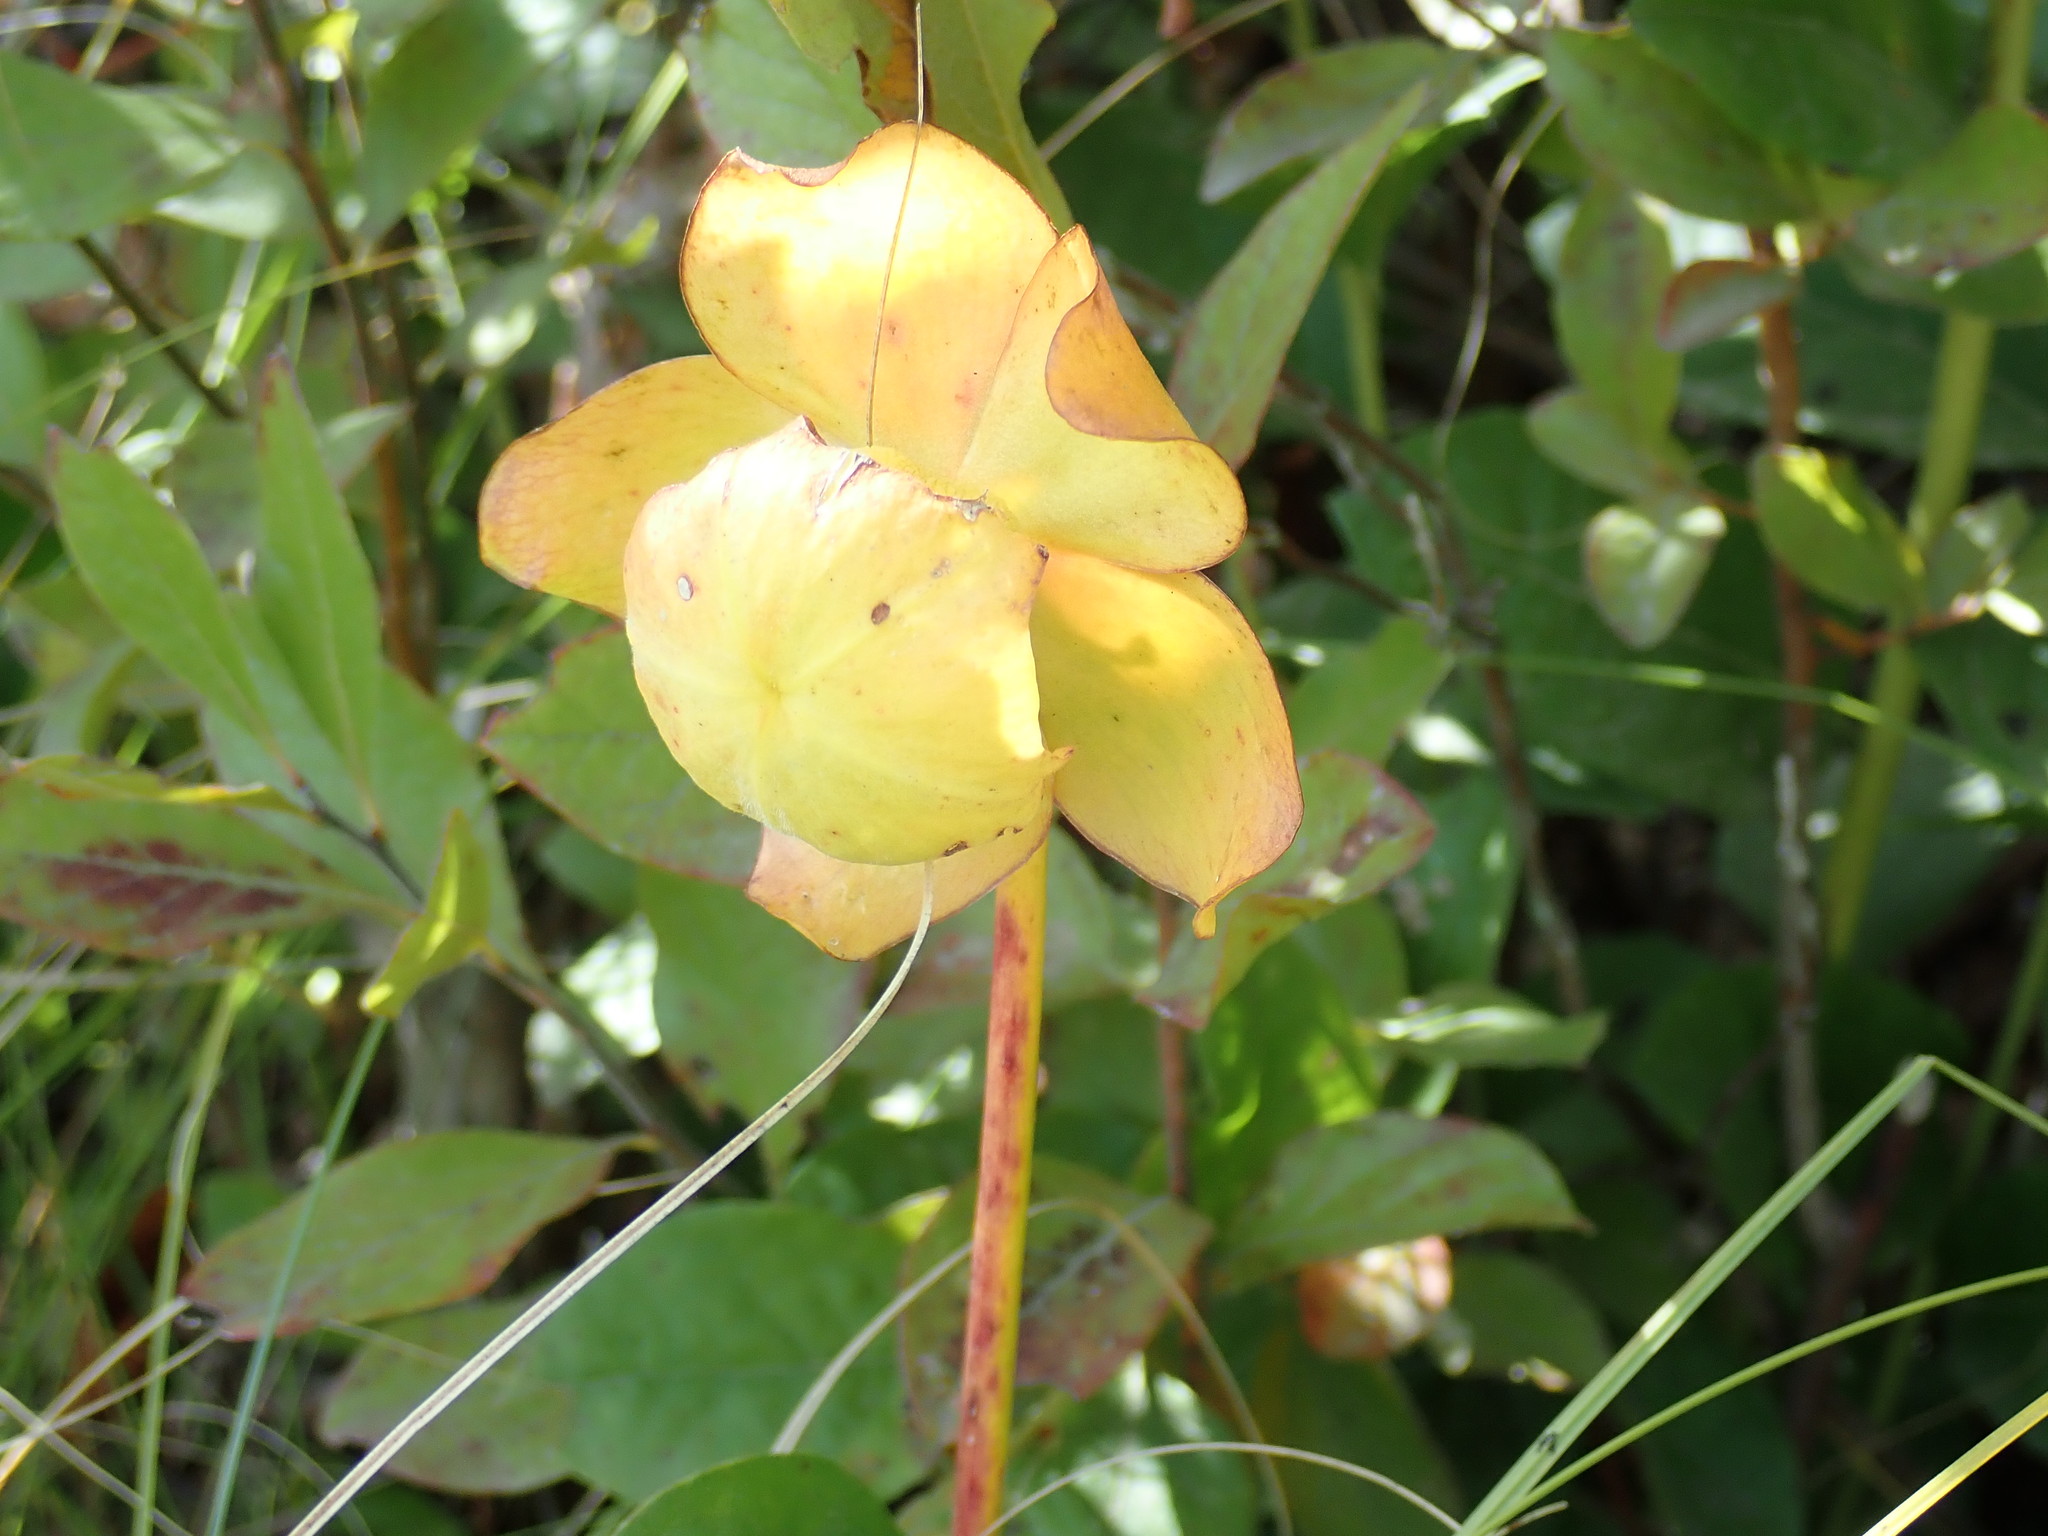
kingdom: Plantae
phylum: Tracheophyta
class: Magnoliopsida
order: Ericales
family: Sarraceniaceae
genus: Sarracenia
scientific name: Sarracenia purpurea
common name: Pitcherplant
